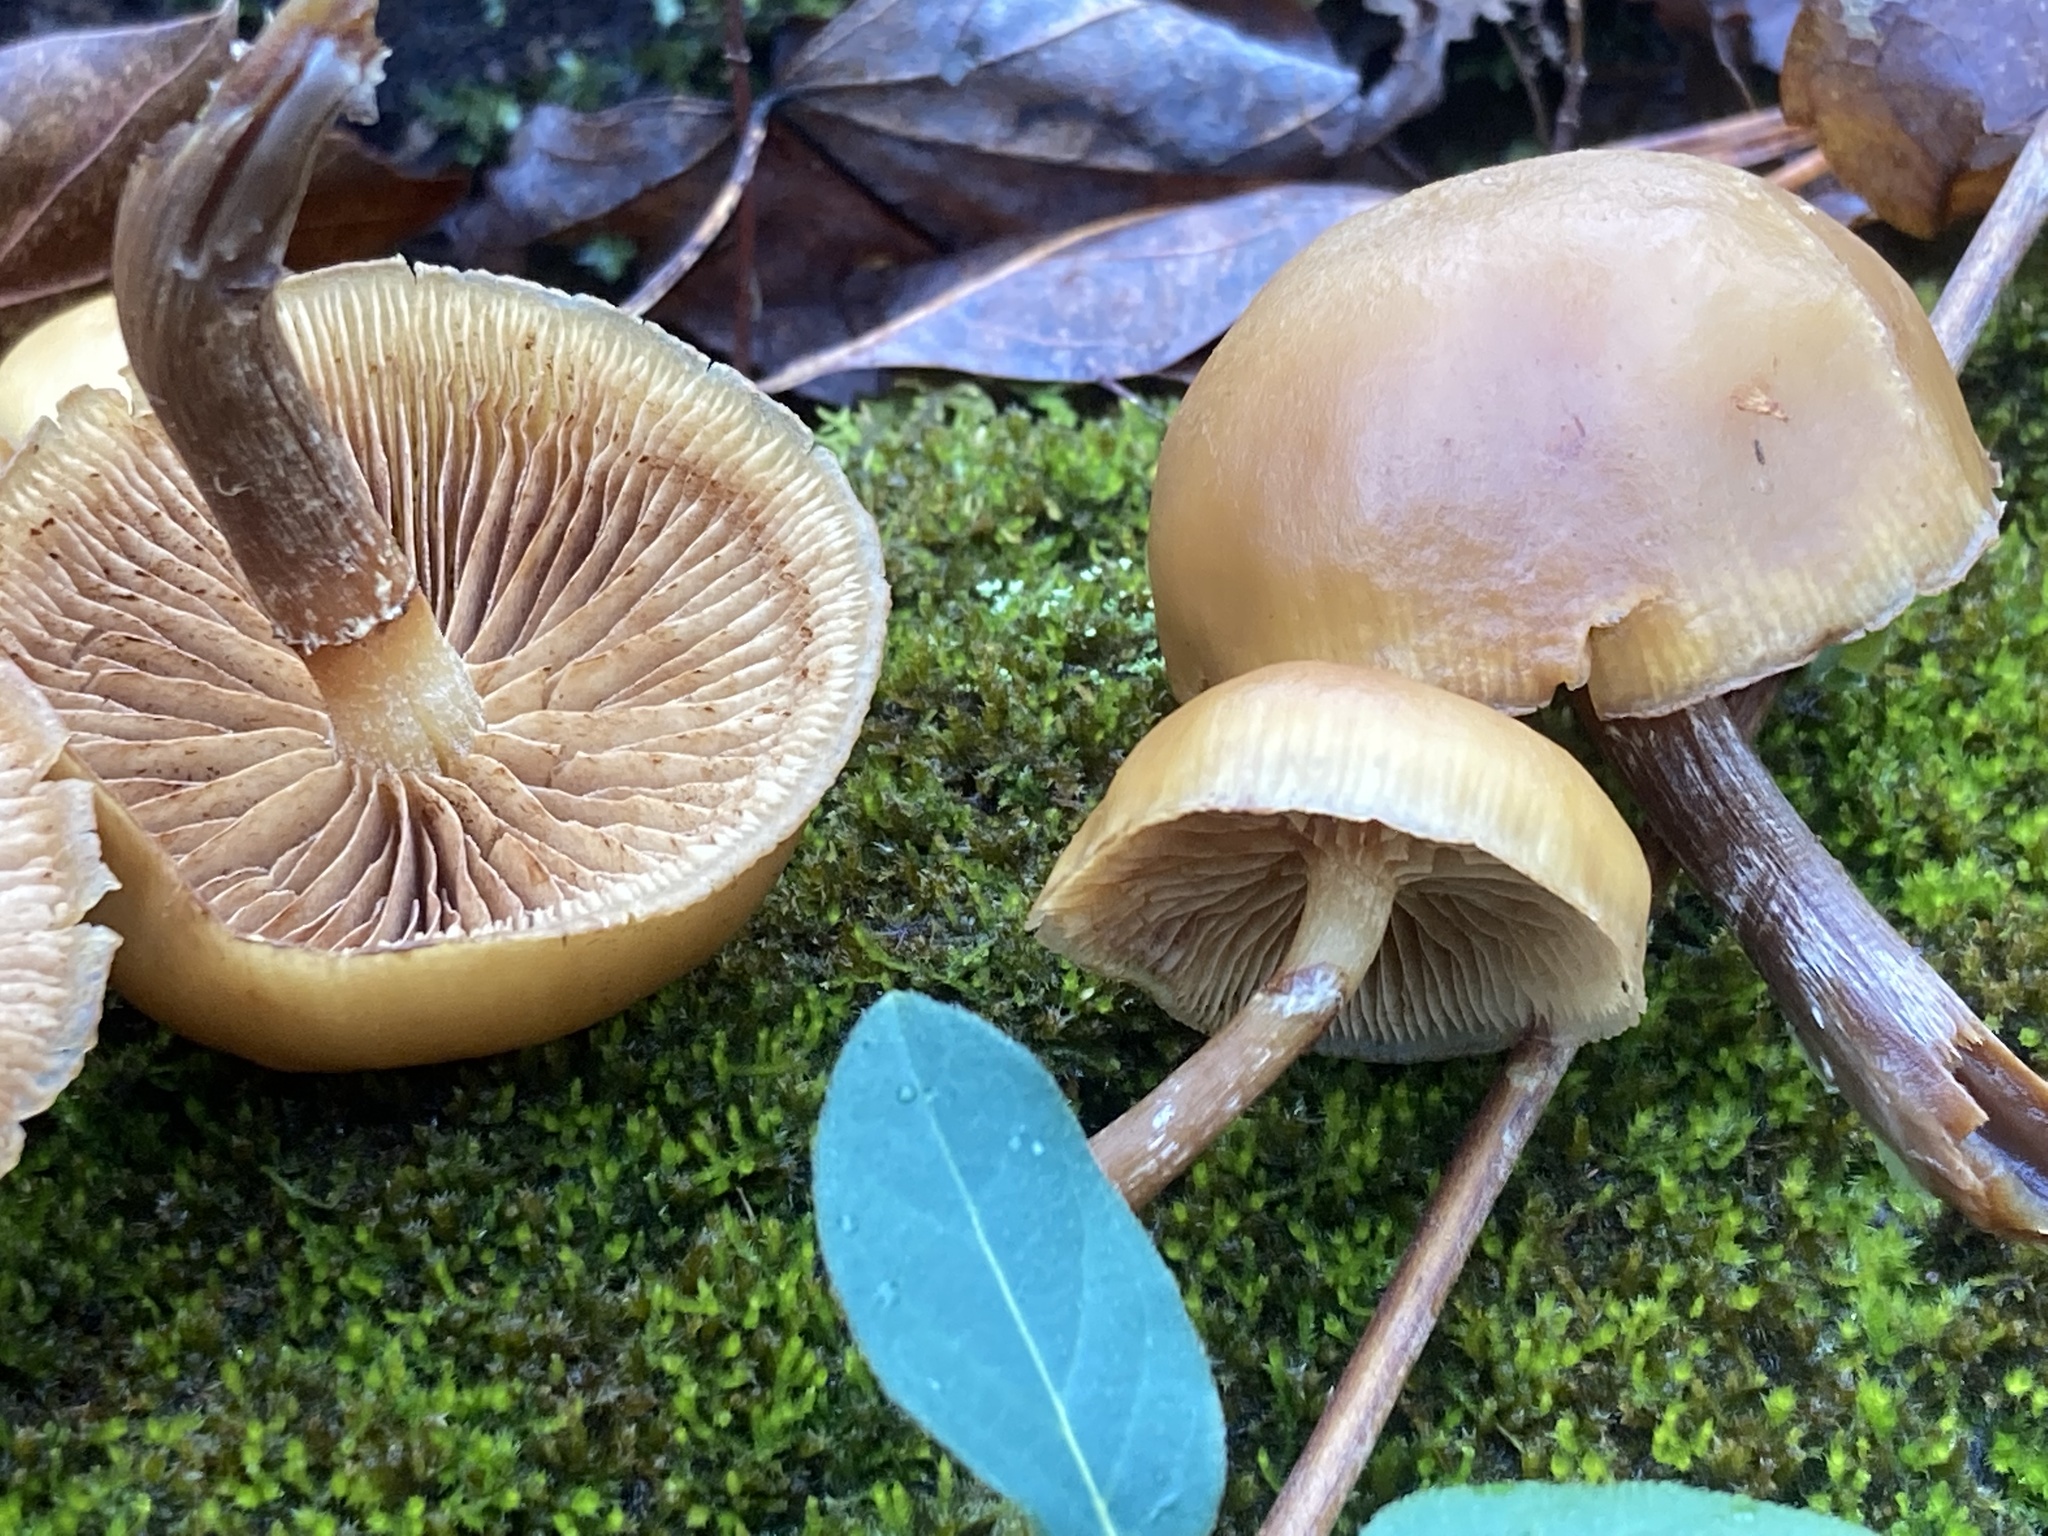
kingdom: Fungi
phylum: Basidiomycota
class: Agaricomycetes
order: Agaricales
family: Hymenogastraceae
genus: Galerina
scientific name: Galerina marginata
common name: Funeral bell
